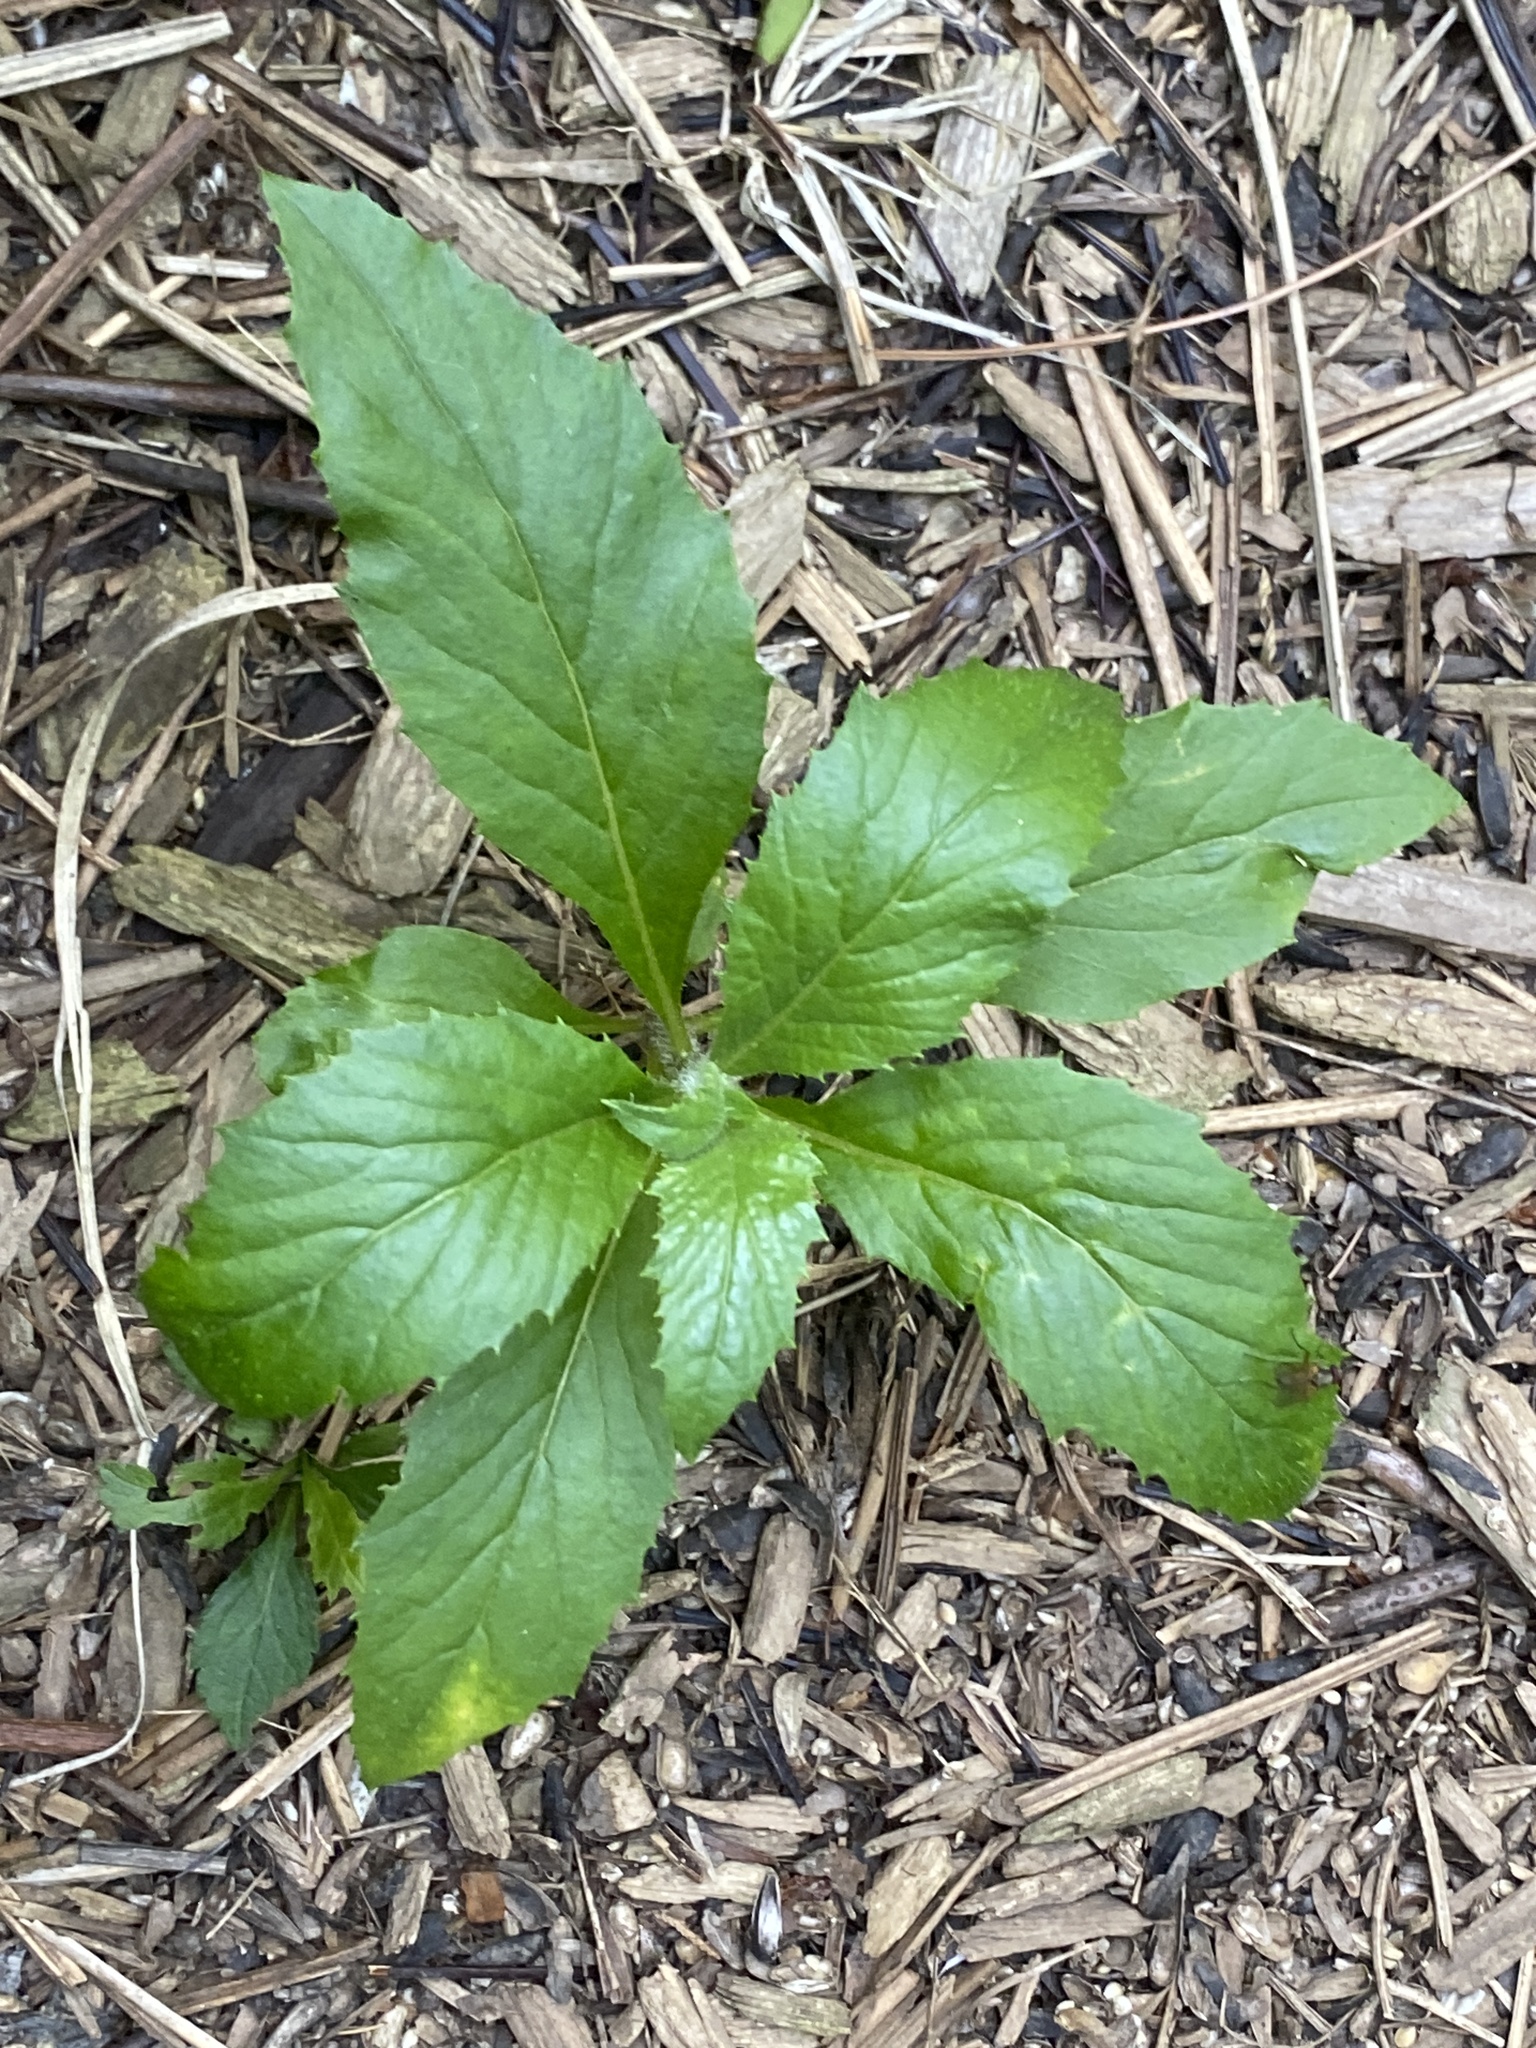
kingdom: Plantae
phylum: Tracheophyta
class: Magnoliopsida
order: Asterales
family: Asteraceae
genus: Erechtites
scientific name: Erechtites hieraciifolius
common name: American burnweed
